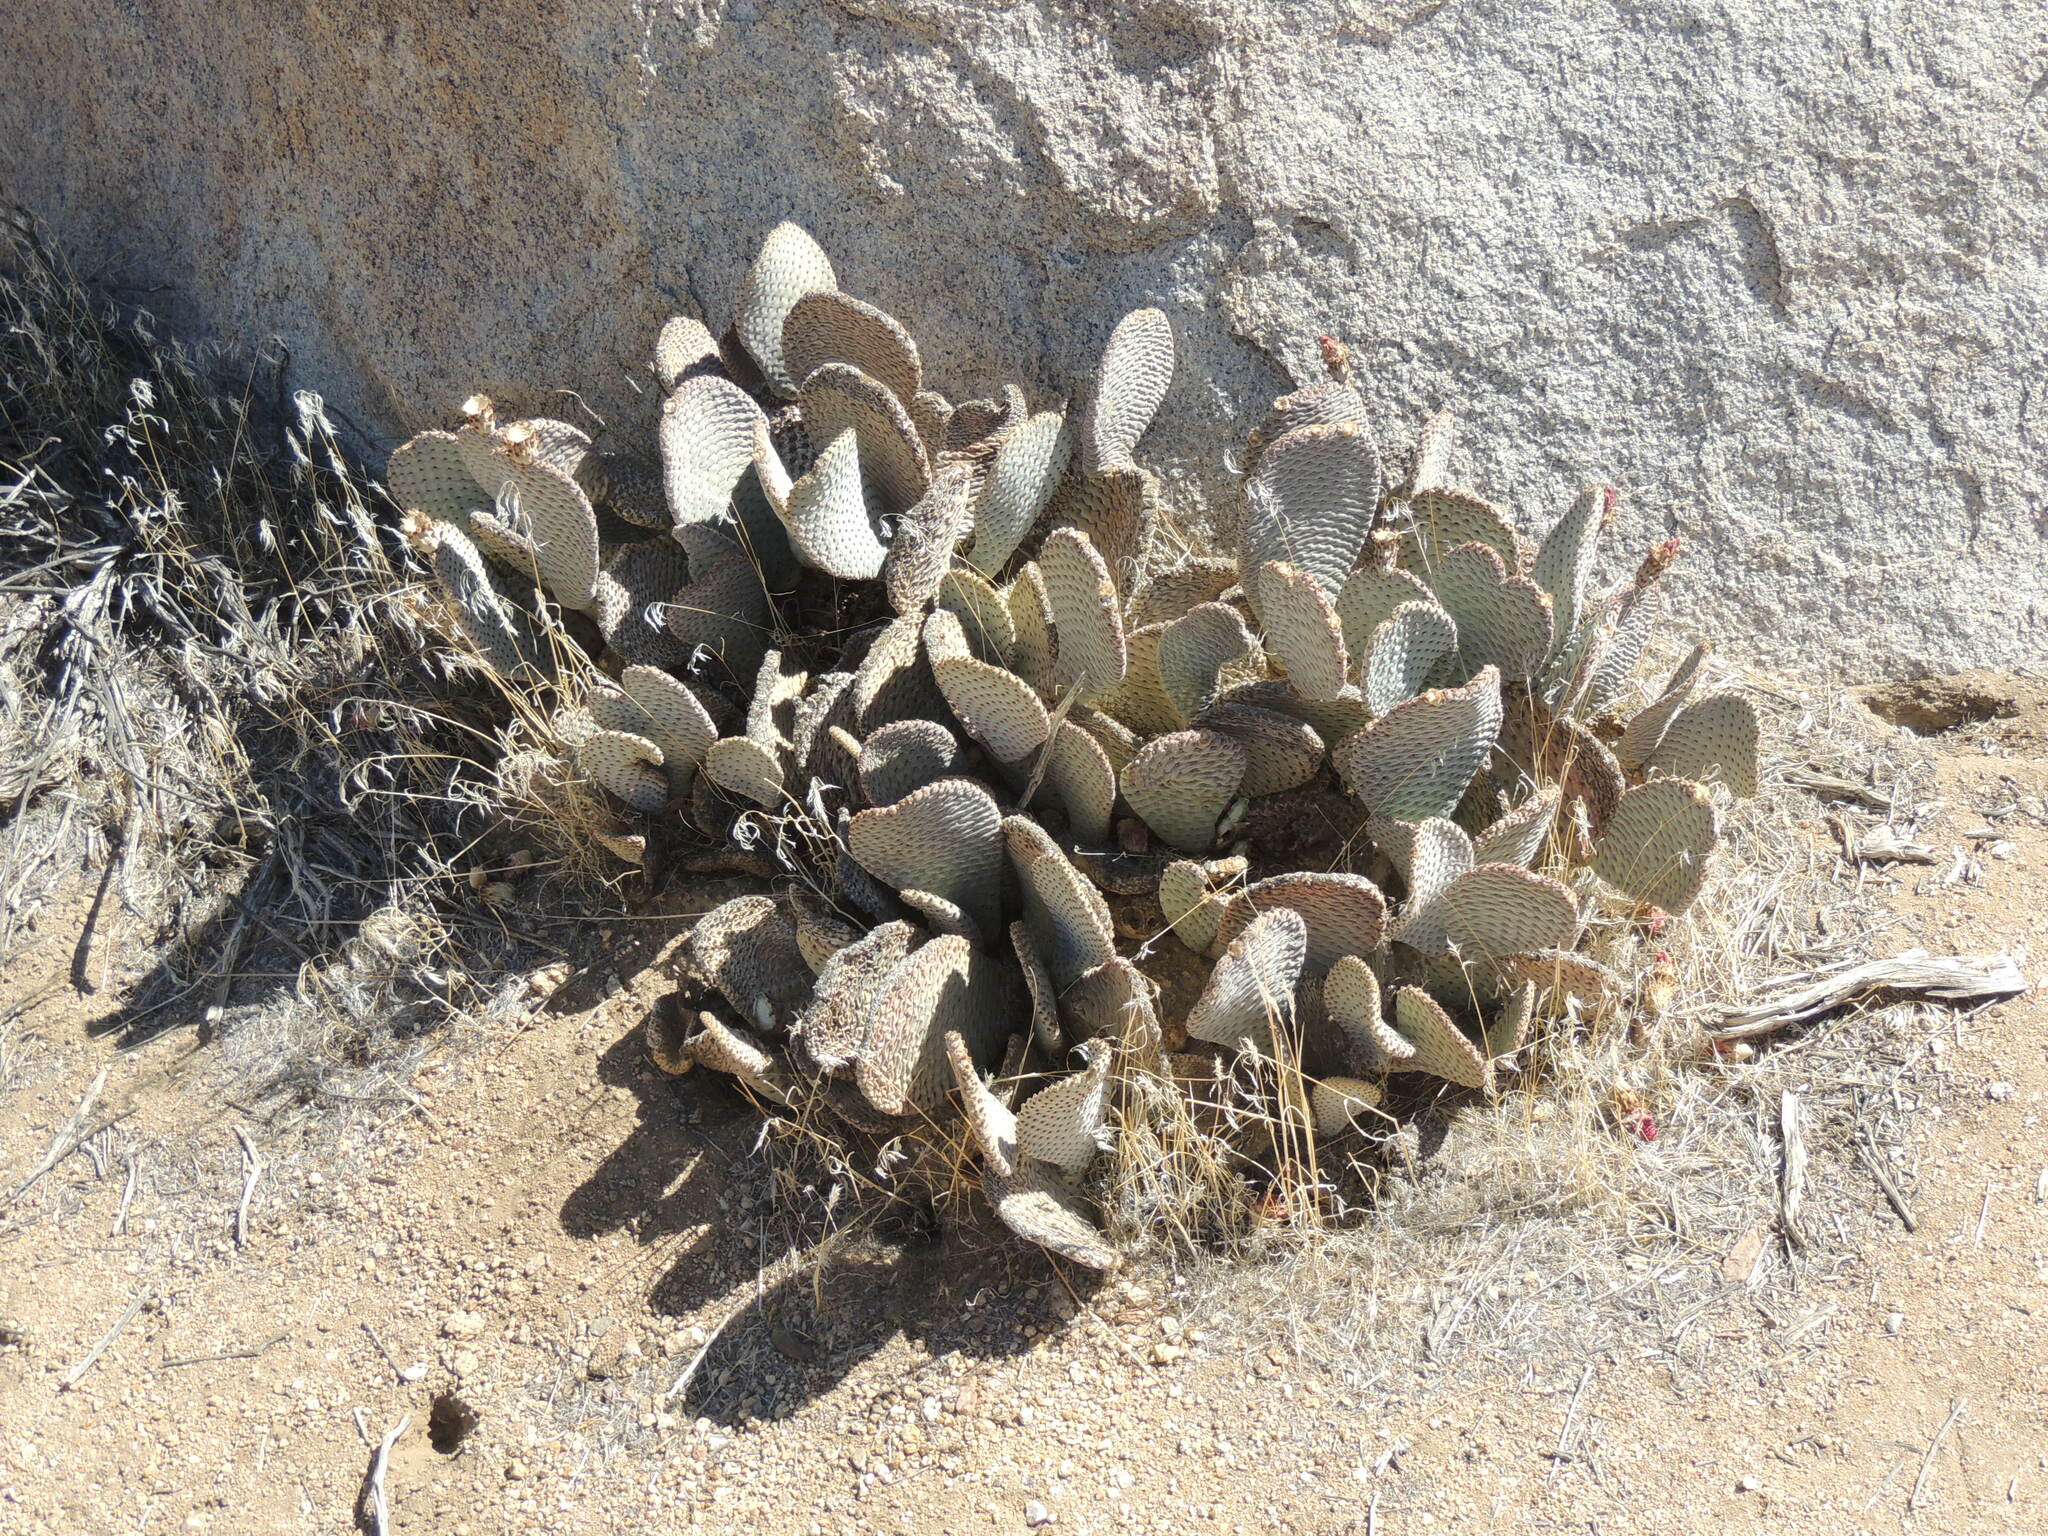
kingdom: Plantae
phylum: Tracheophyta
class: Magnoliopsida
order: Caryophyllales
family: Cactaceae
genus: Opuntia
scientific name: Opuntia basilaris
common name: Beavertail prickly-pear
